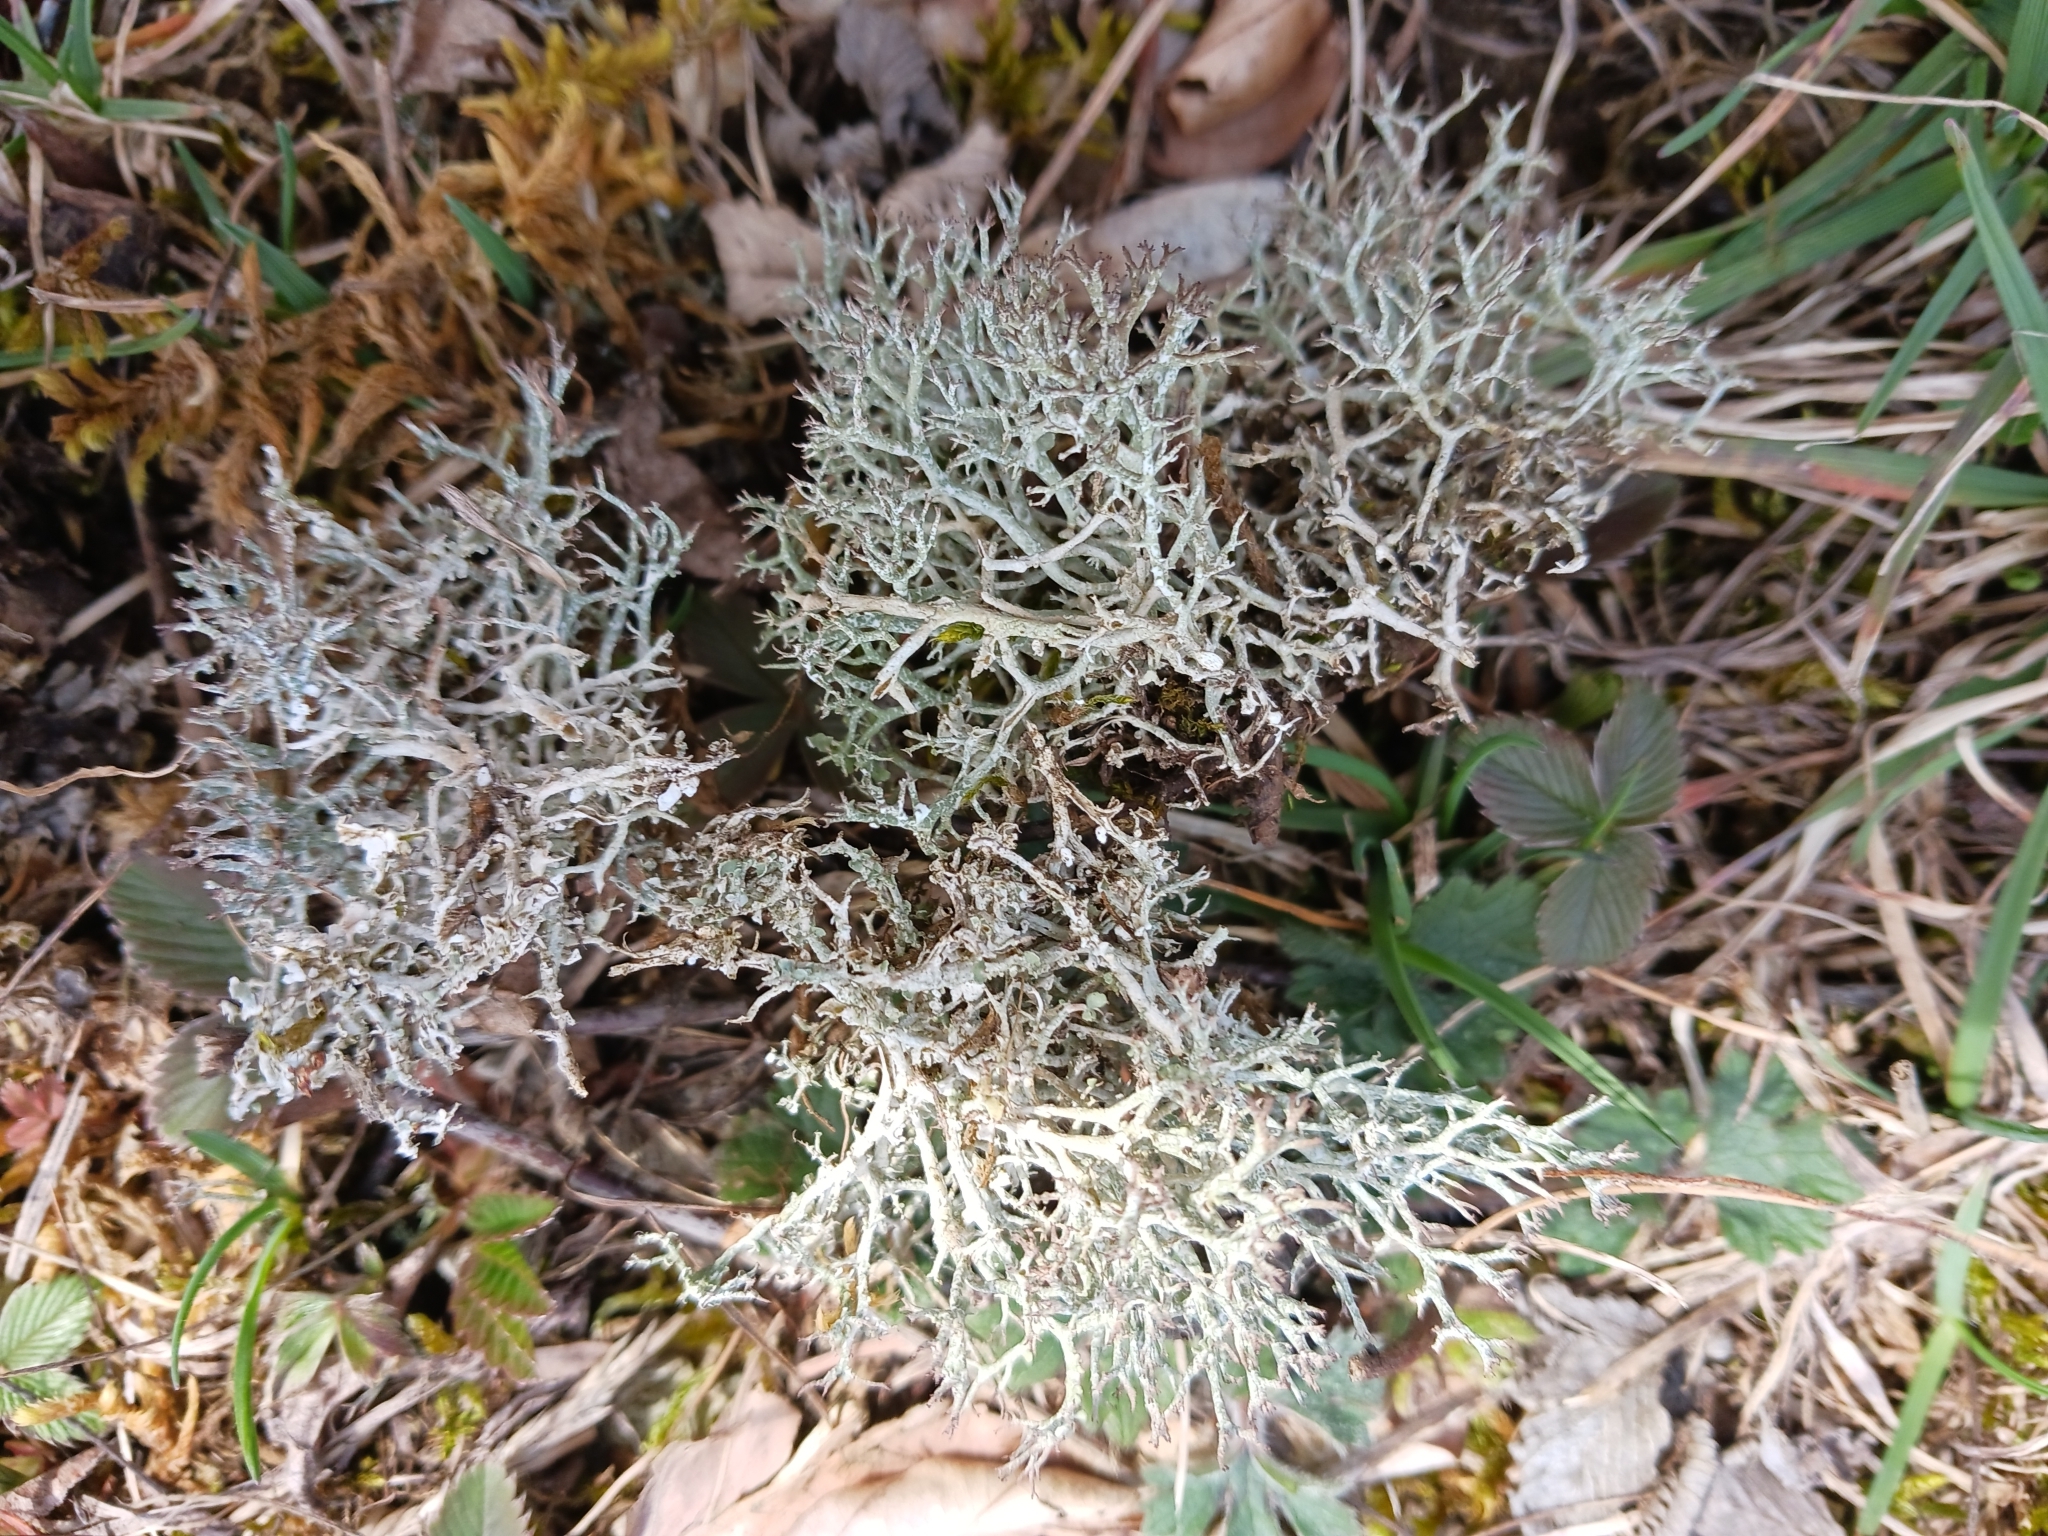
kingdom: Fungi
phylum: Ascomycota
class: Lecanoromycetes
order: Lecanorales
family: Cladoniaceae
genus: Cladonia
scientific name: Cladonia rangiformis
